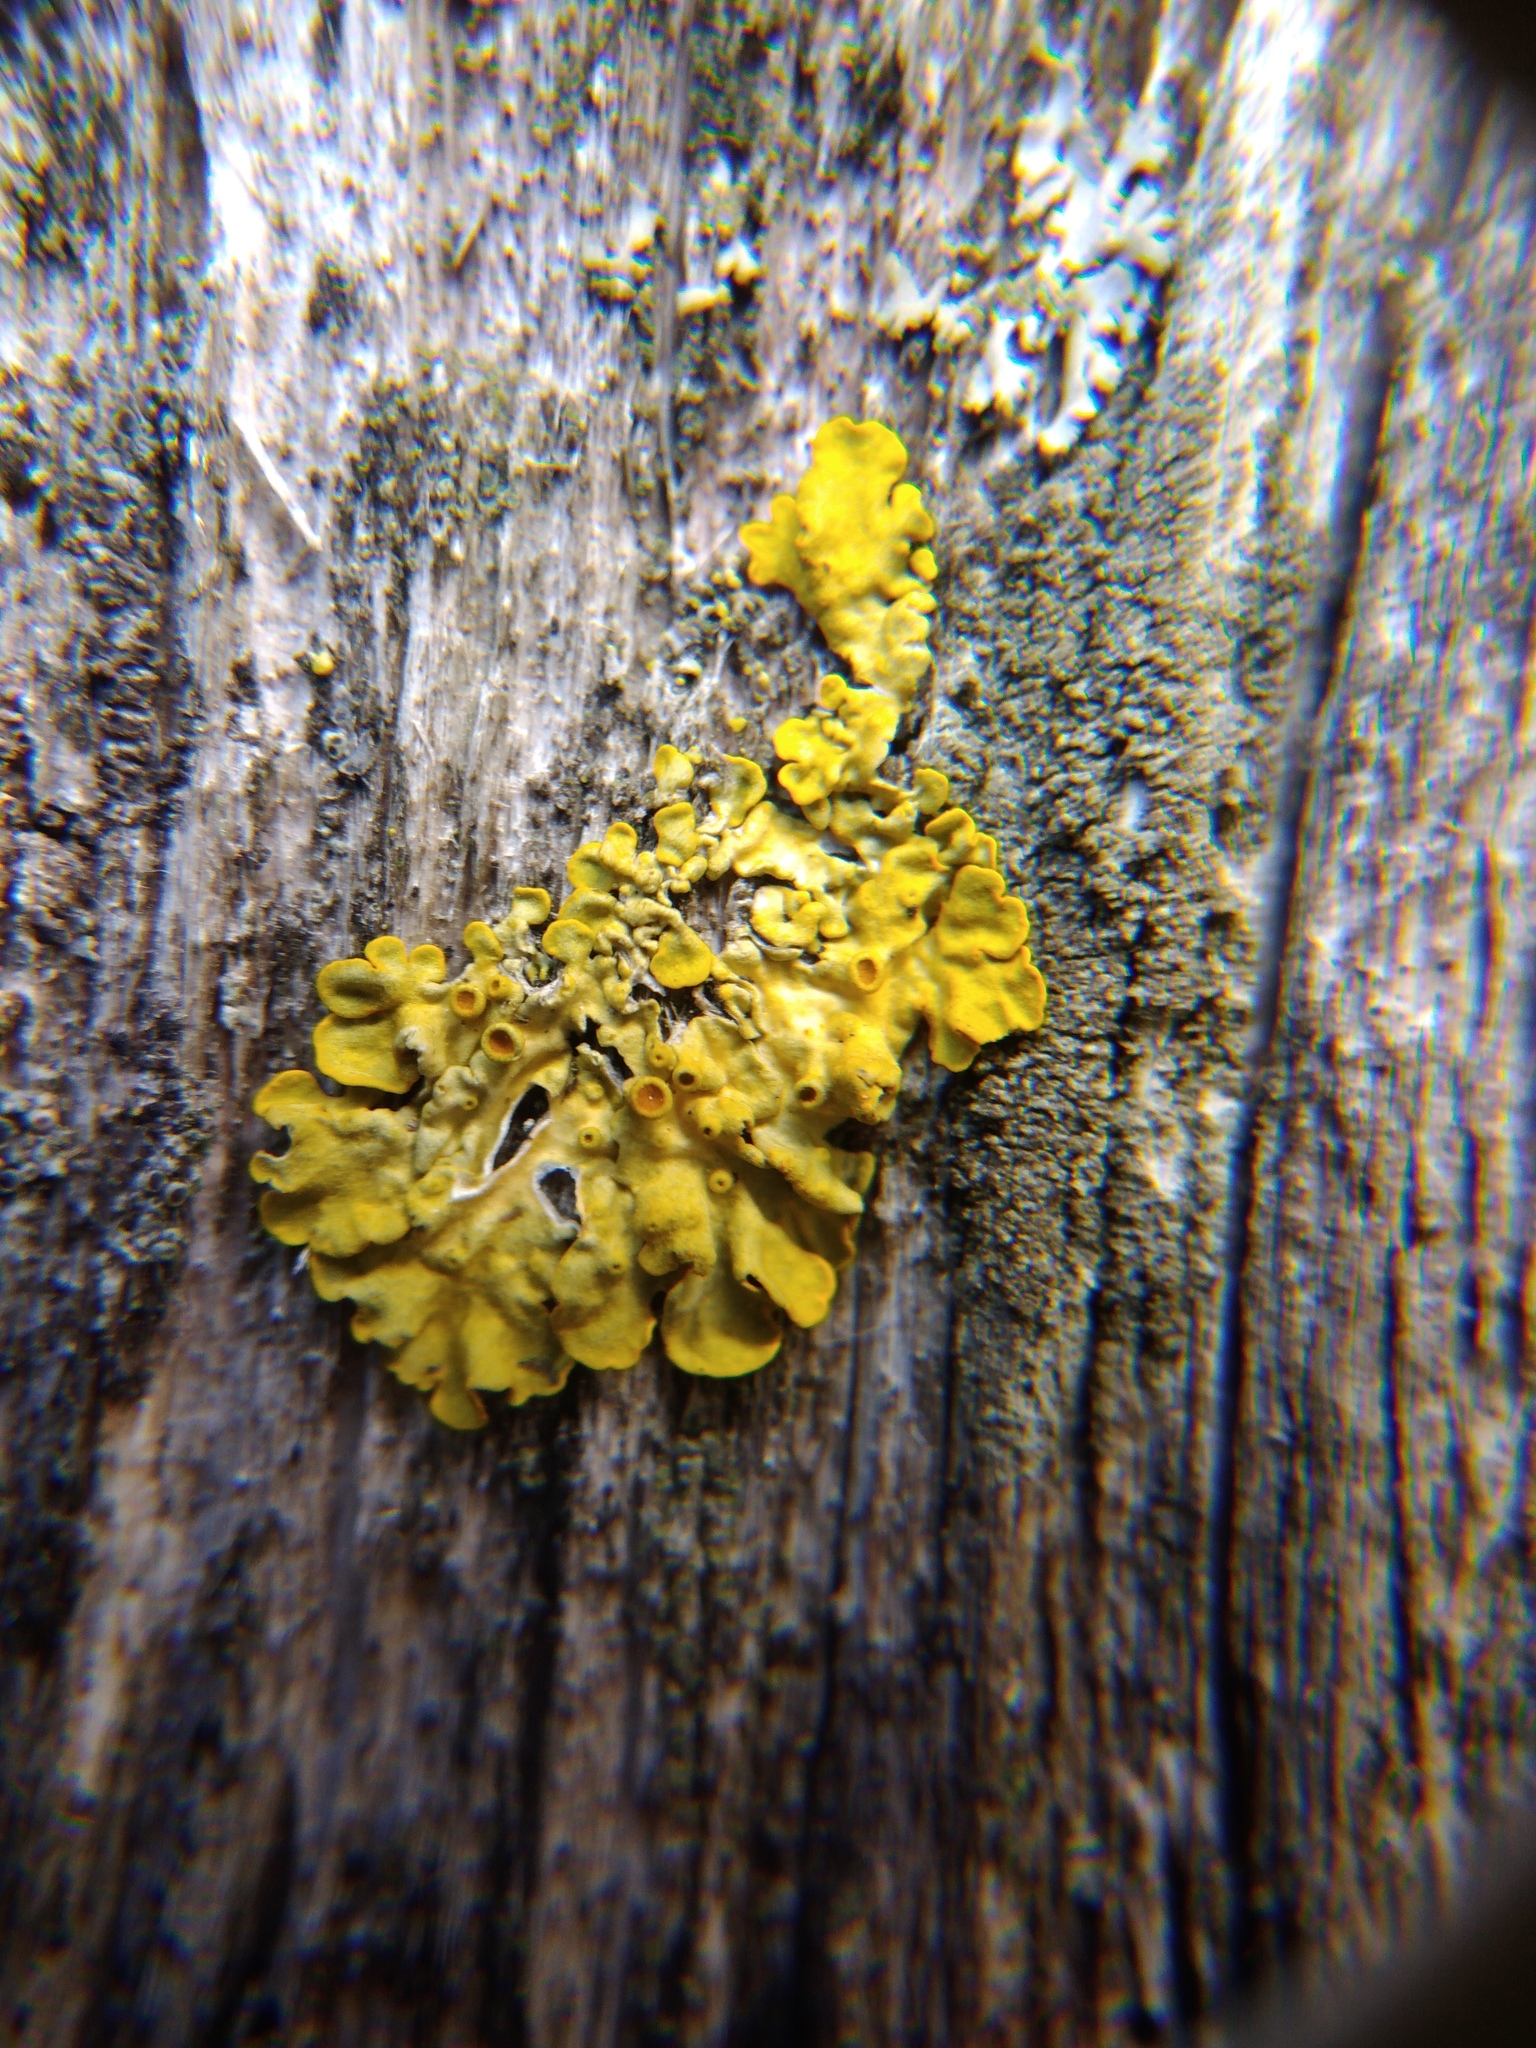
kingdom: Fungi
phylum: Ascomycota
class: Lecanoromycetes
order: Teloschistales
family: Teloschistaceae
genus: Xanthoria
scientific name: Xanthoria parietina
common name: Common orange lichen
